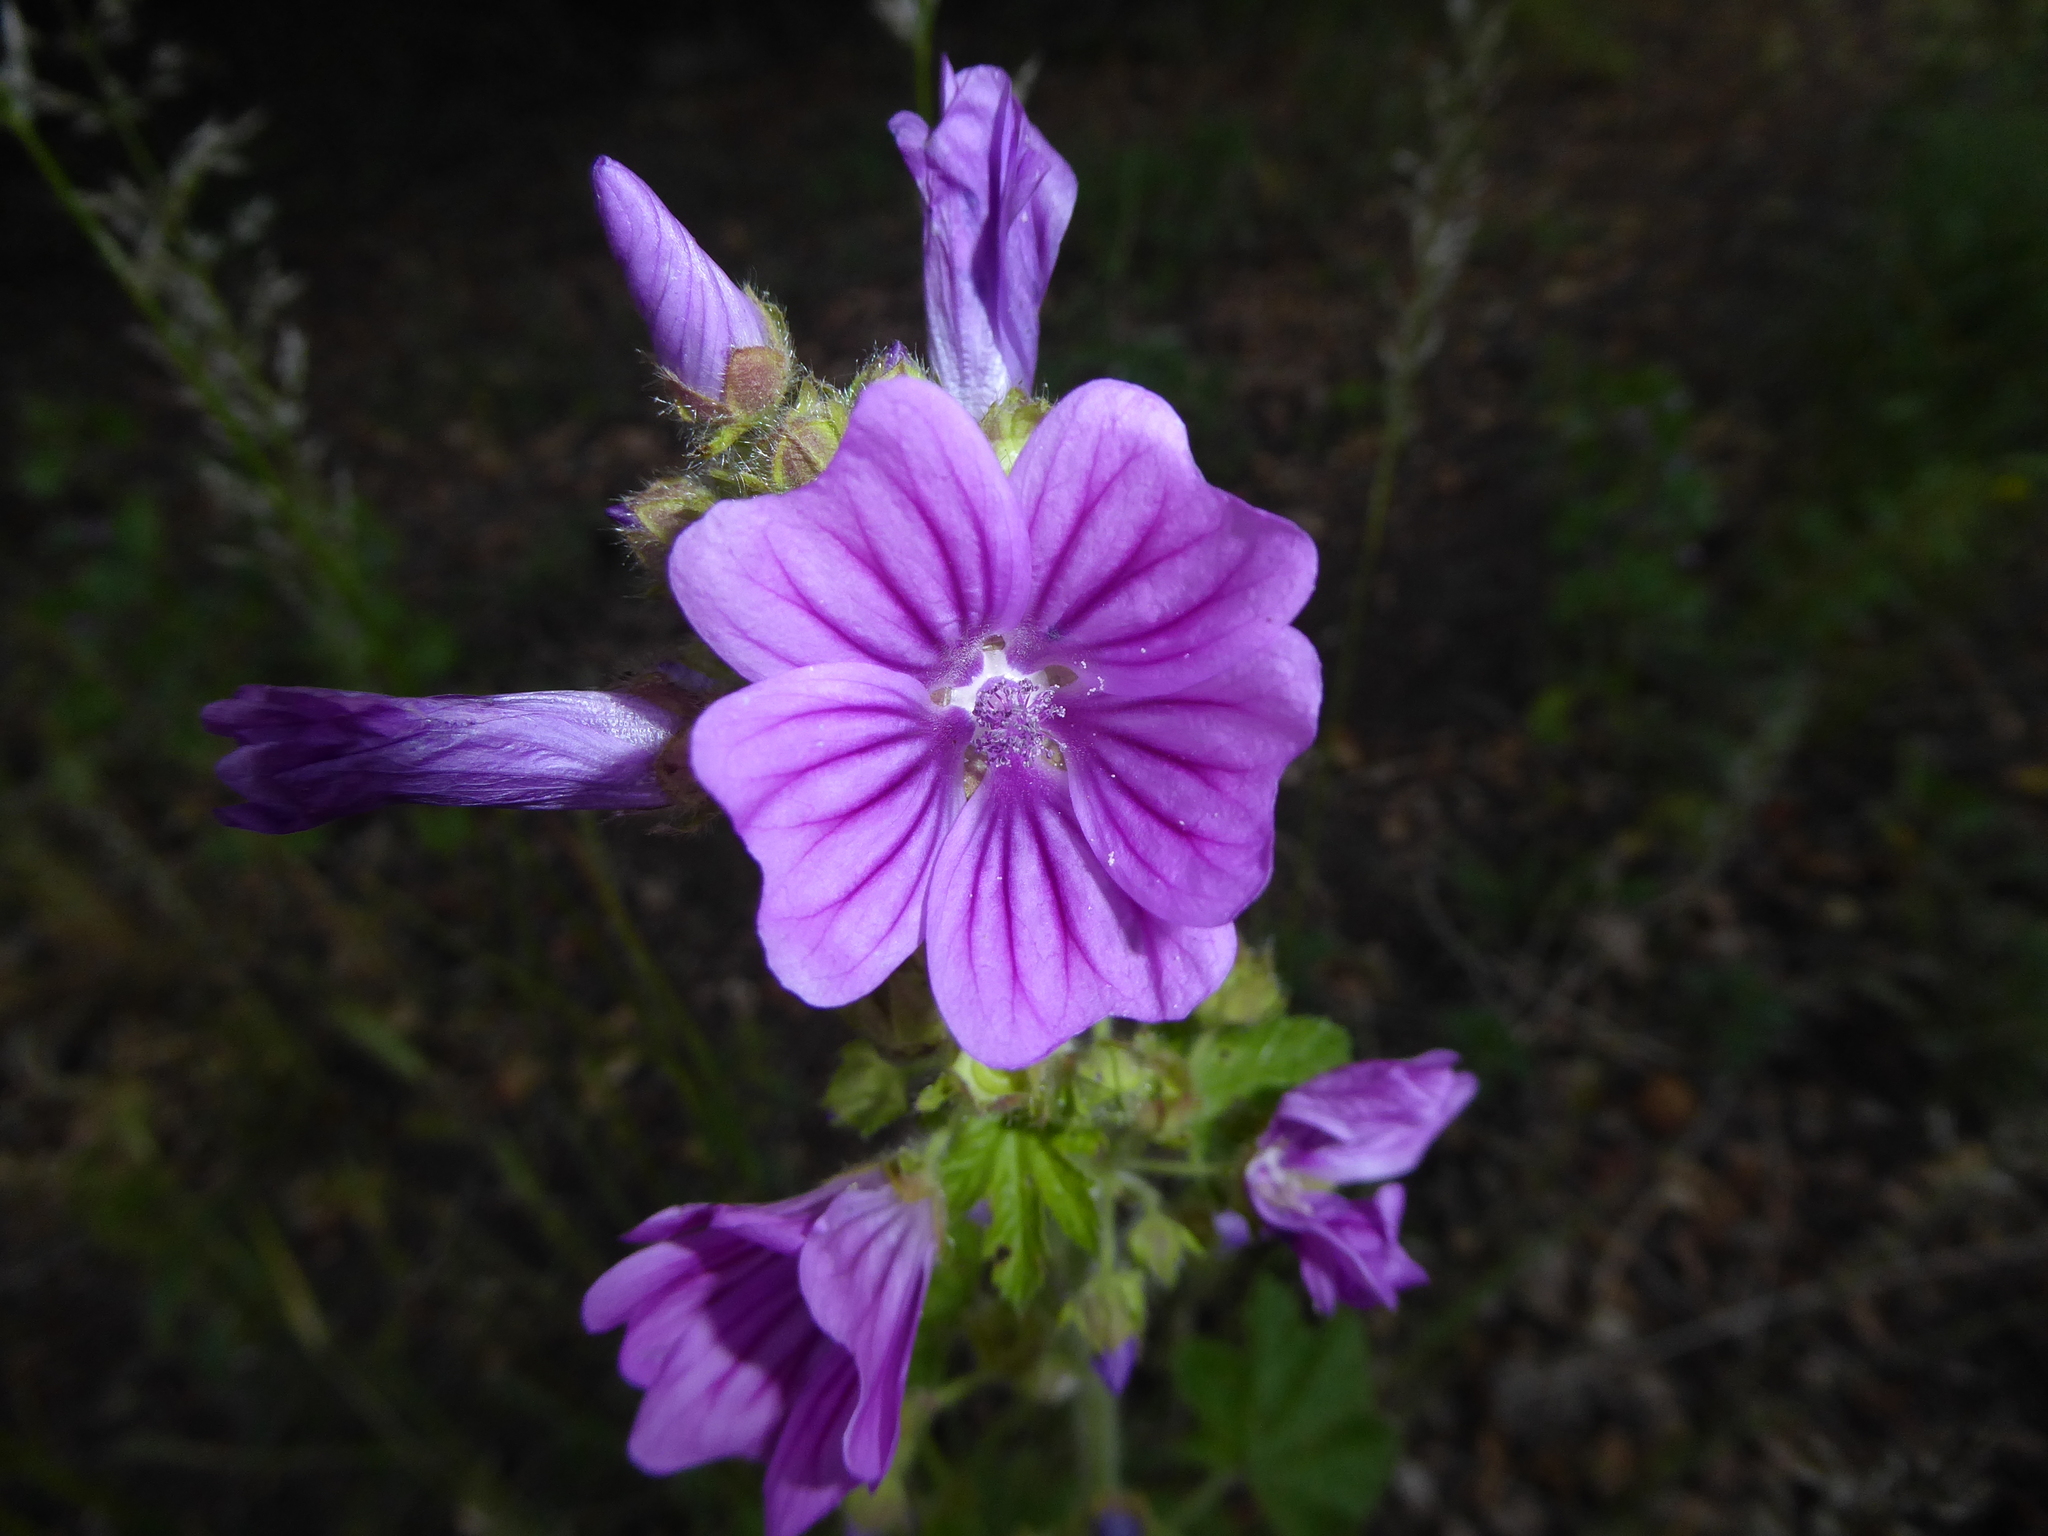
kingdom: Plantae
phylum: Tracheophyta
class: Magnoliopsida
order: Malvales
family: Malvaceae
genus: Malva
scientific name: Malva sylvestris
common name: Common mallow
